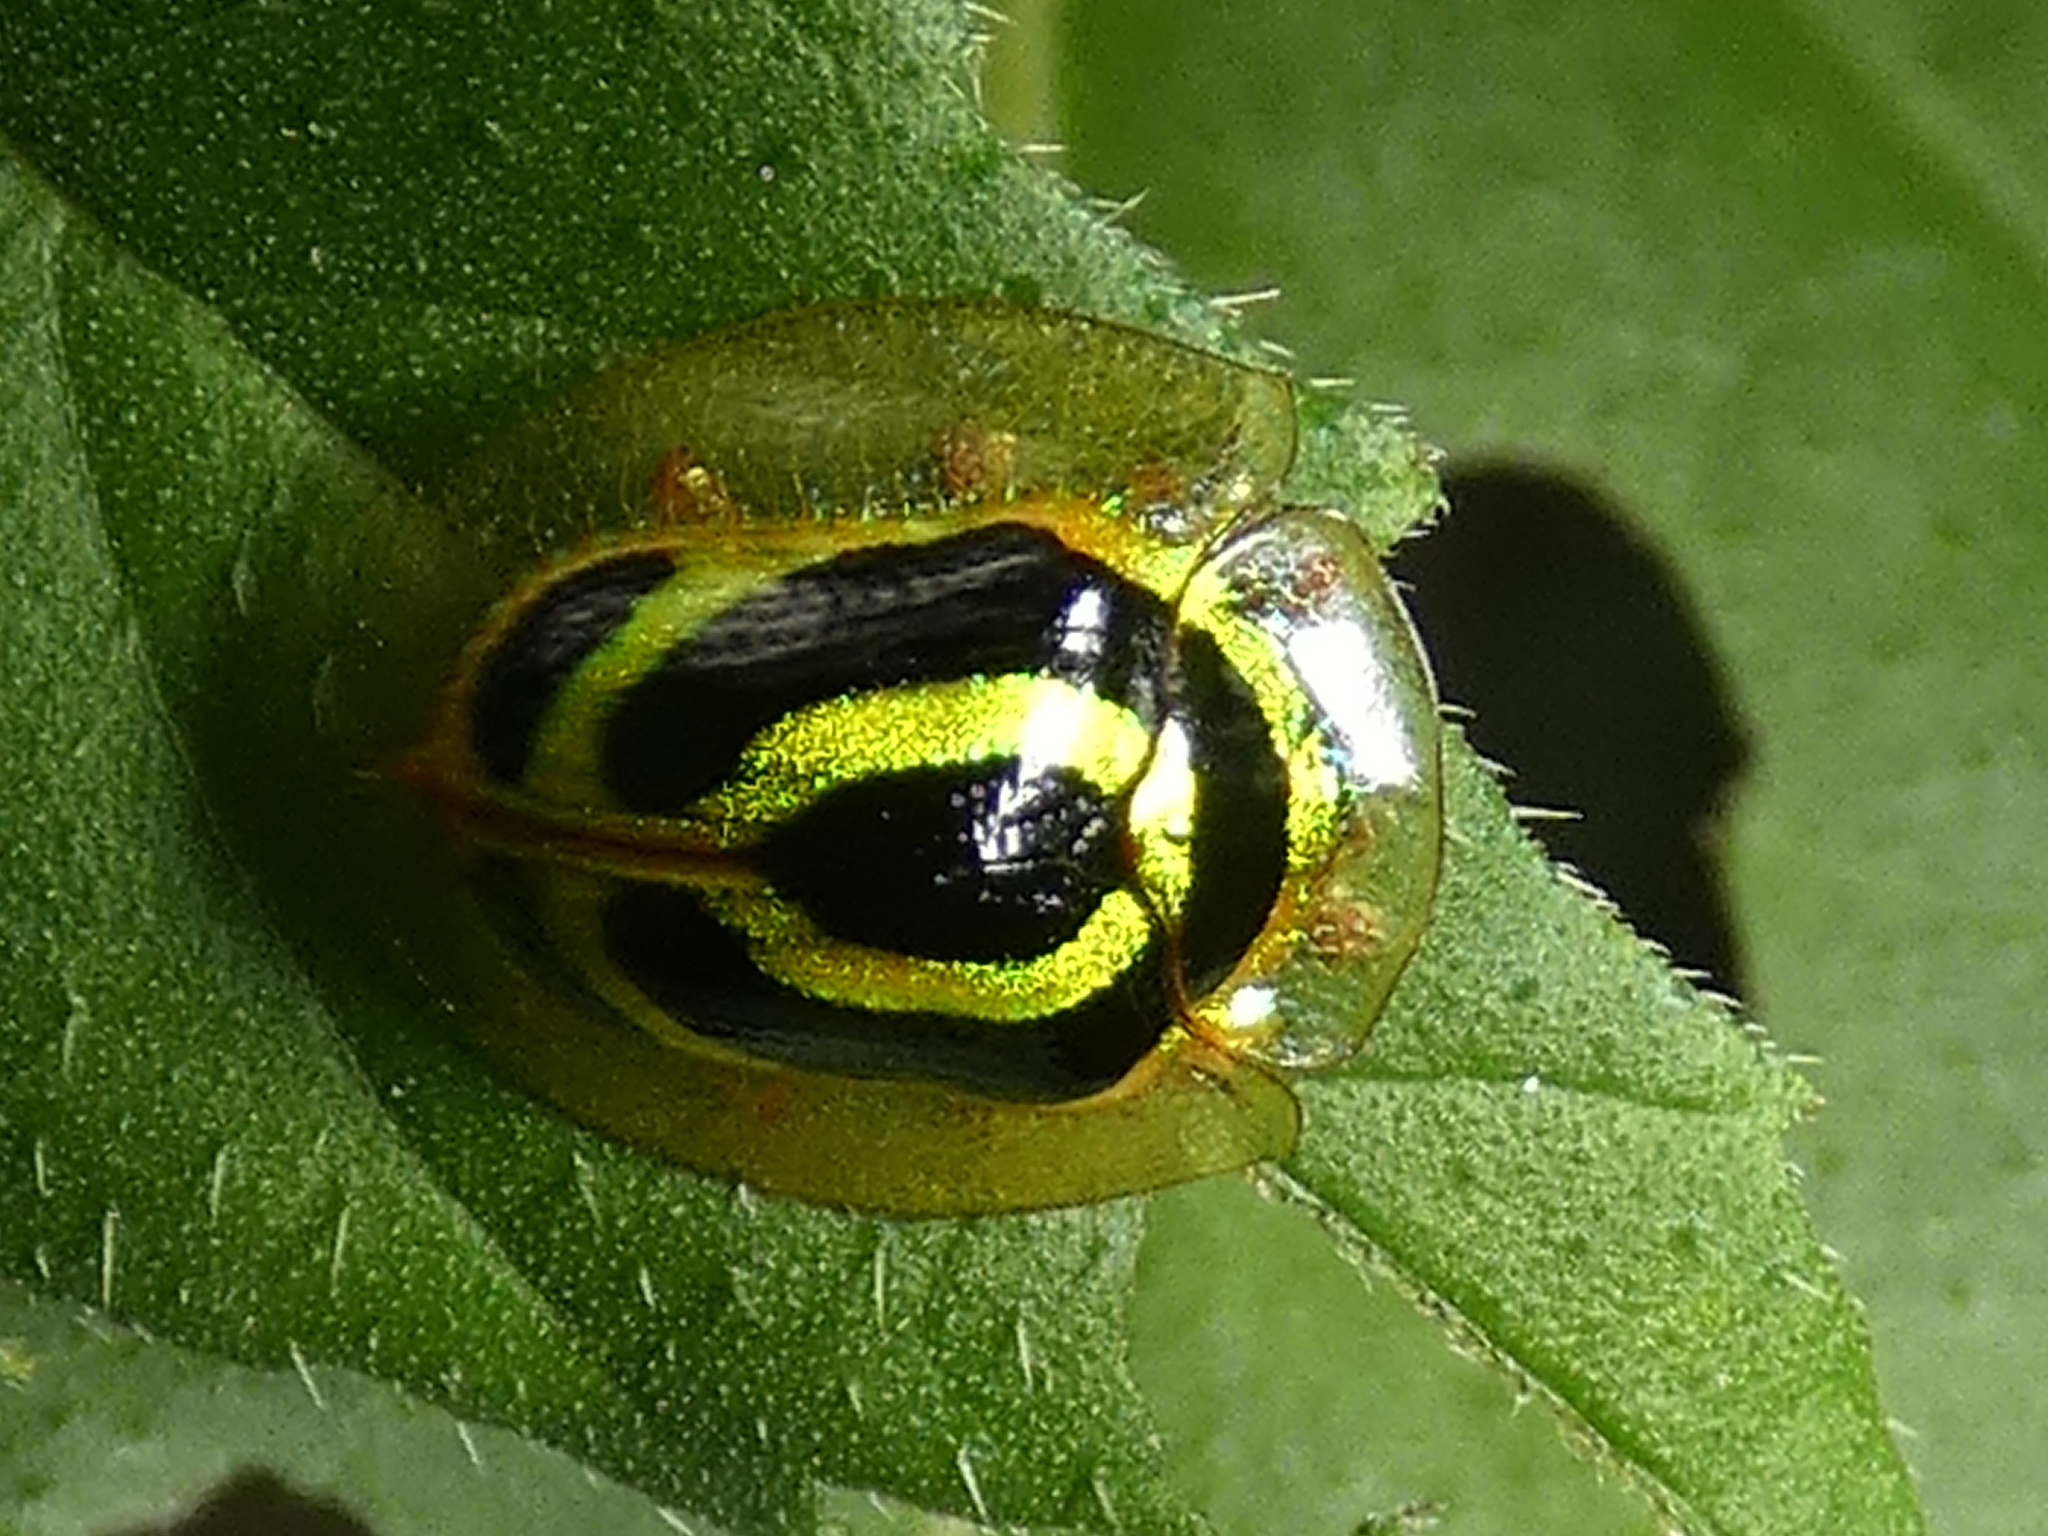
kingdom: Animalia
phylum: Arthropoda
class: Insecta
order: Coleoptera
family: Chrysomelidae
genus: Coptocycla
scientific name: Coptocycla arcuata
